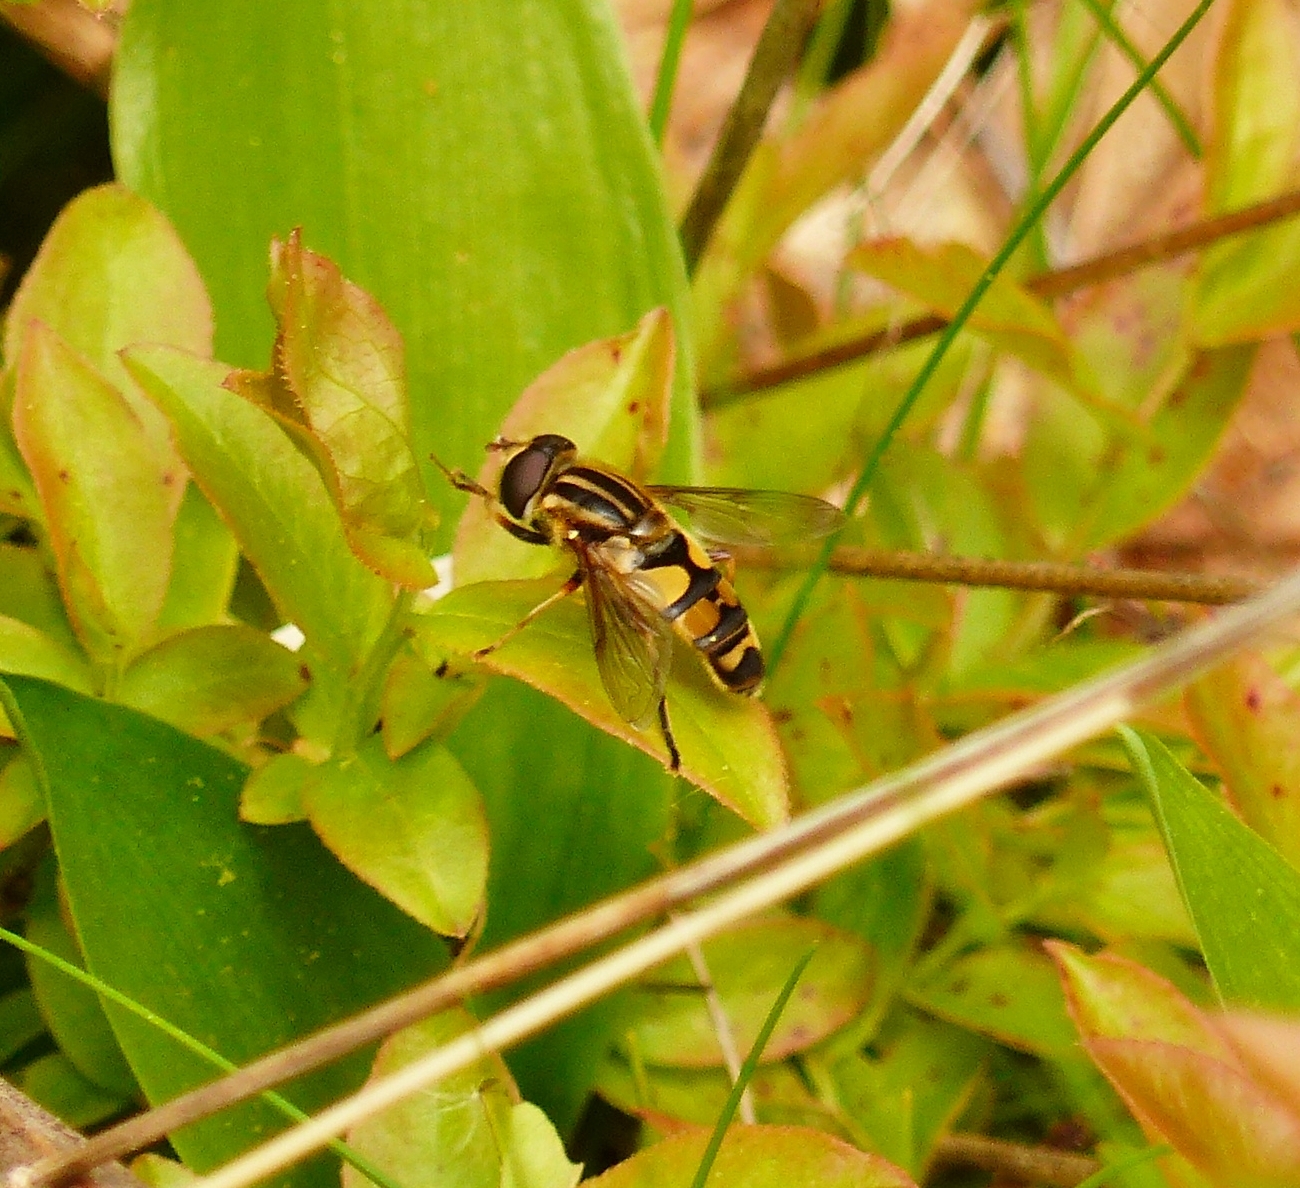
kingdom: Animalia
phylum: Arthropoda
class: Insecta
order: Diptera
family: Syrphidae
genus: Helophilus
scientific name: Helophilus fasciatus
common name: Narrow-headed marsh fly
